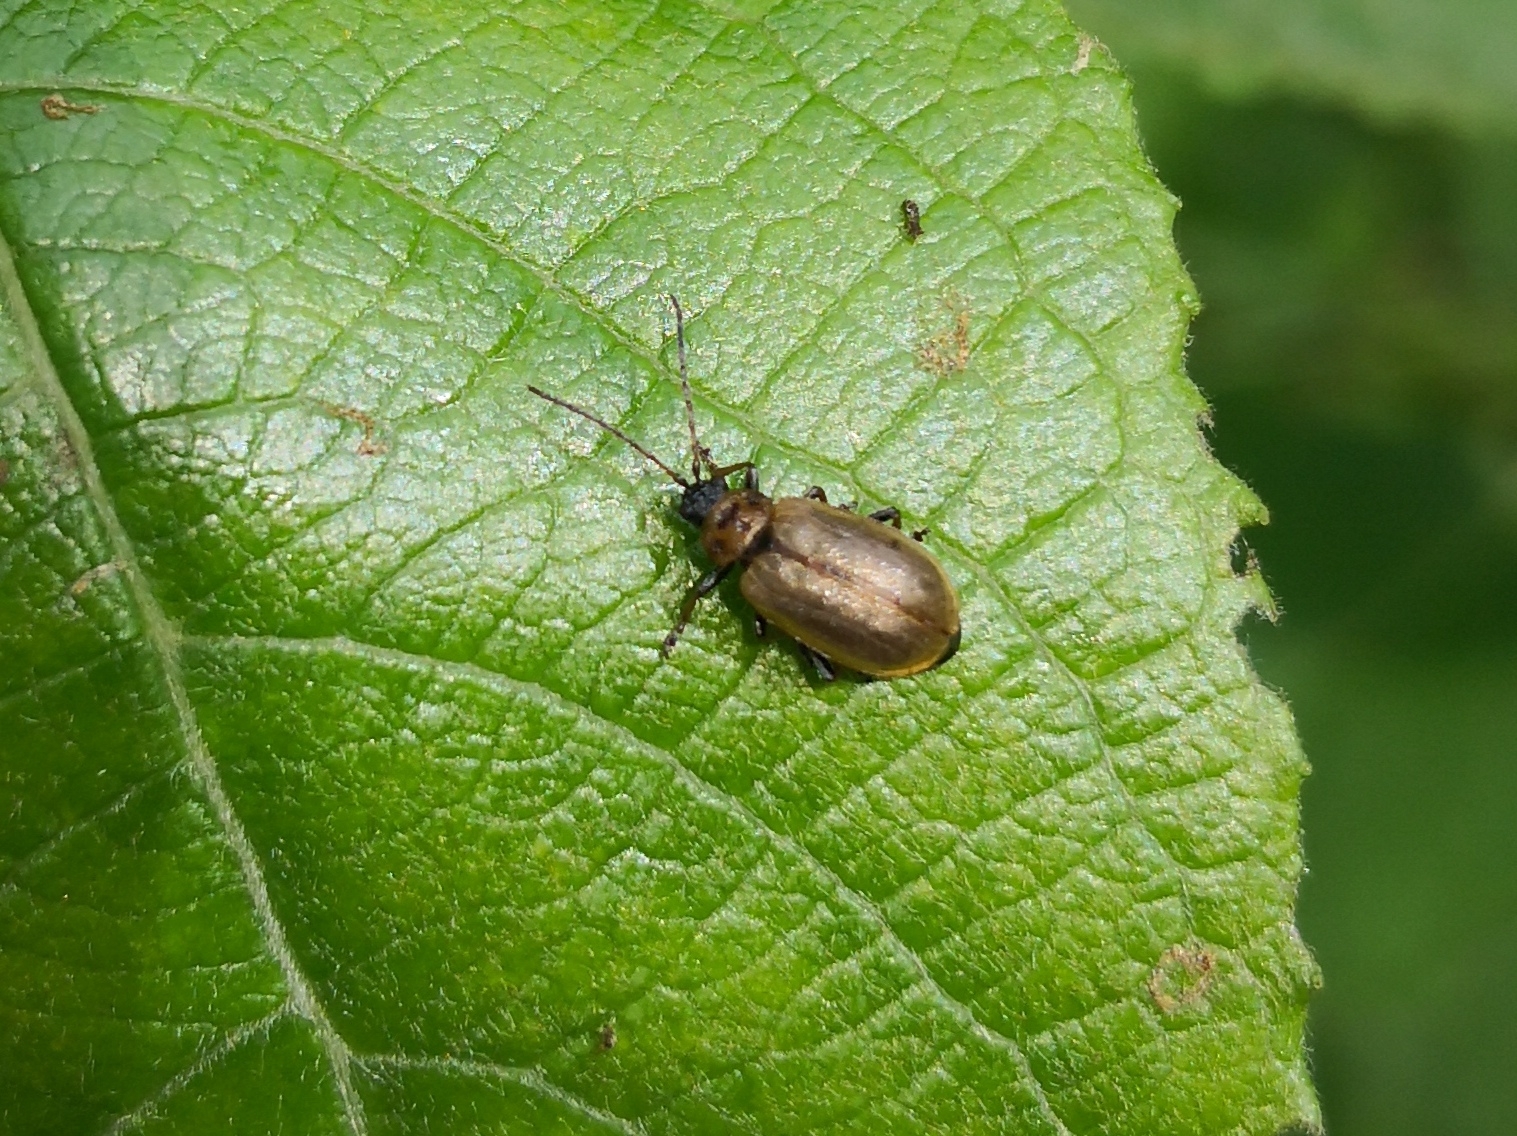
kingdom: Animalia
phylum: Arthropoda
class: Insecta
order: Coleoptera
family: Chrysomelidae
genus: Lochmaea
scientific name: Lochmaea caprea
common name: Willow leaf beetle
